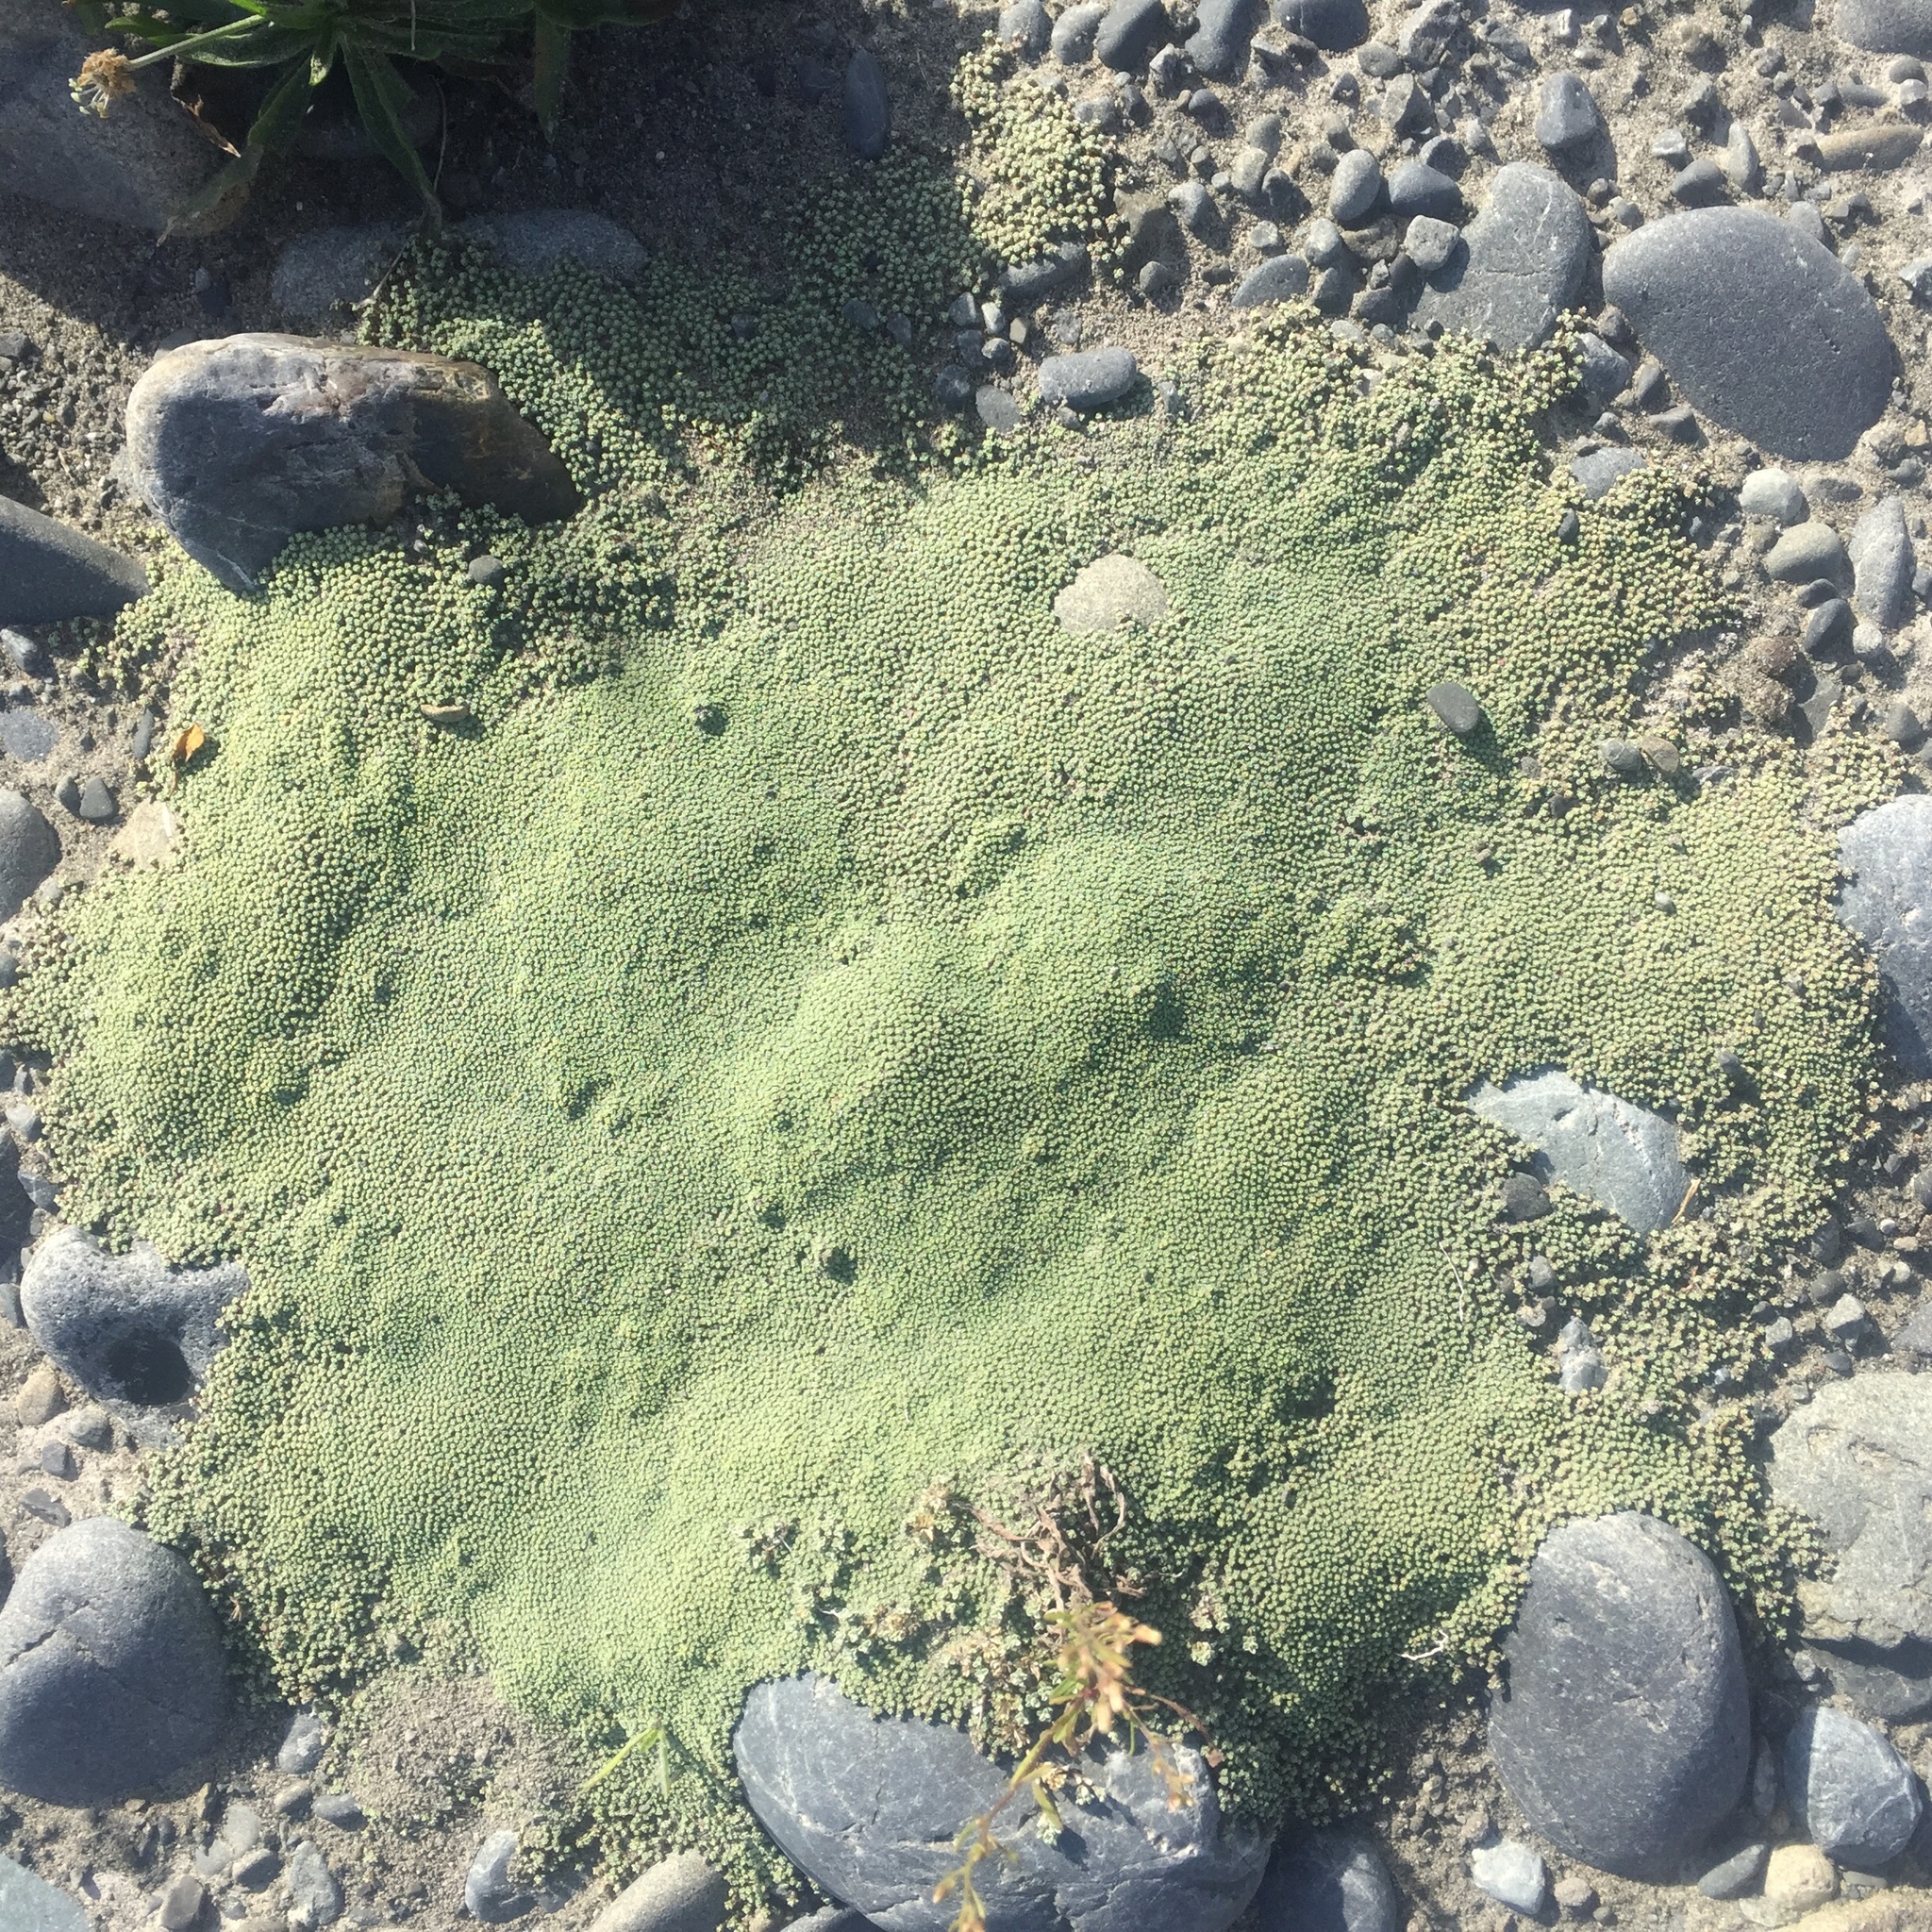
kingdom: Plantae
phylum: Tracheophyta
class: Magnoliopsida
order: Asterales
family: Asteraceae
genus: Raoulia
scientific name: Raoulia australis
